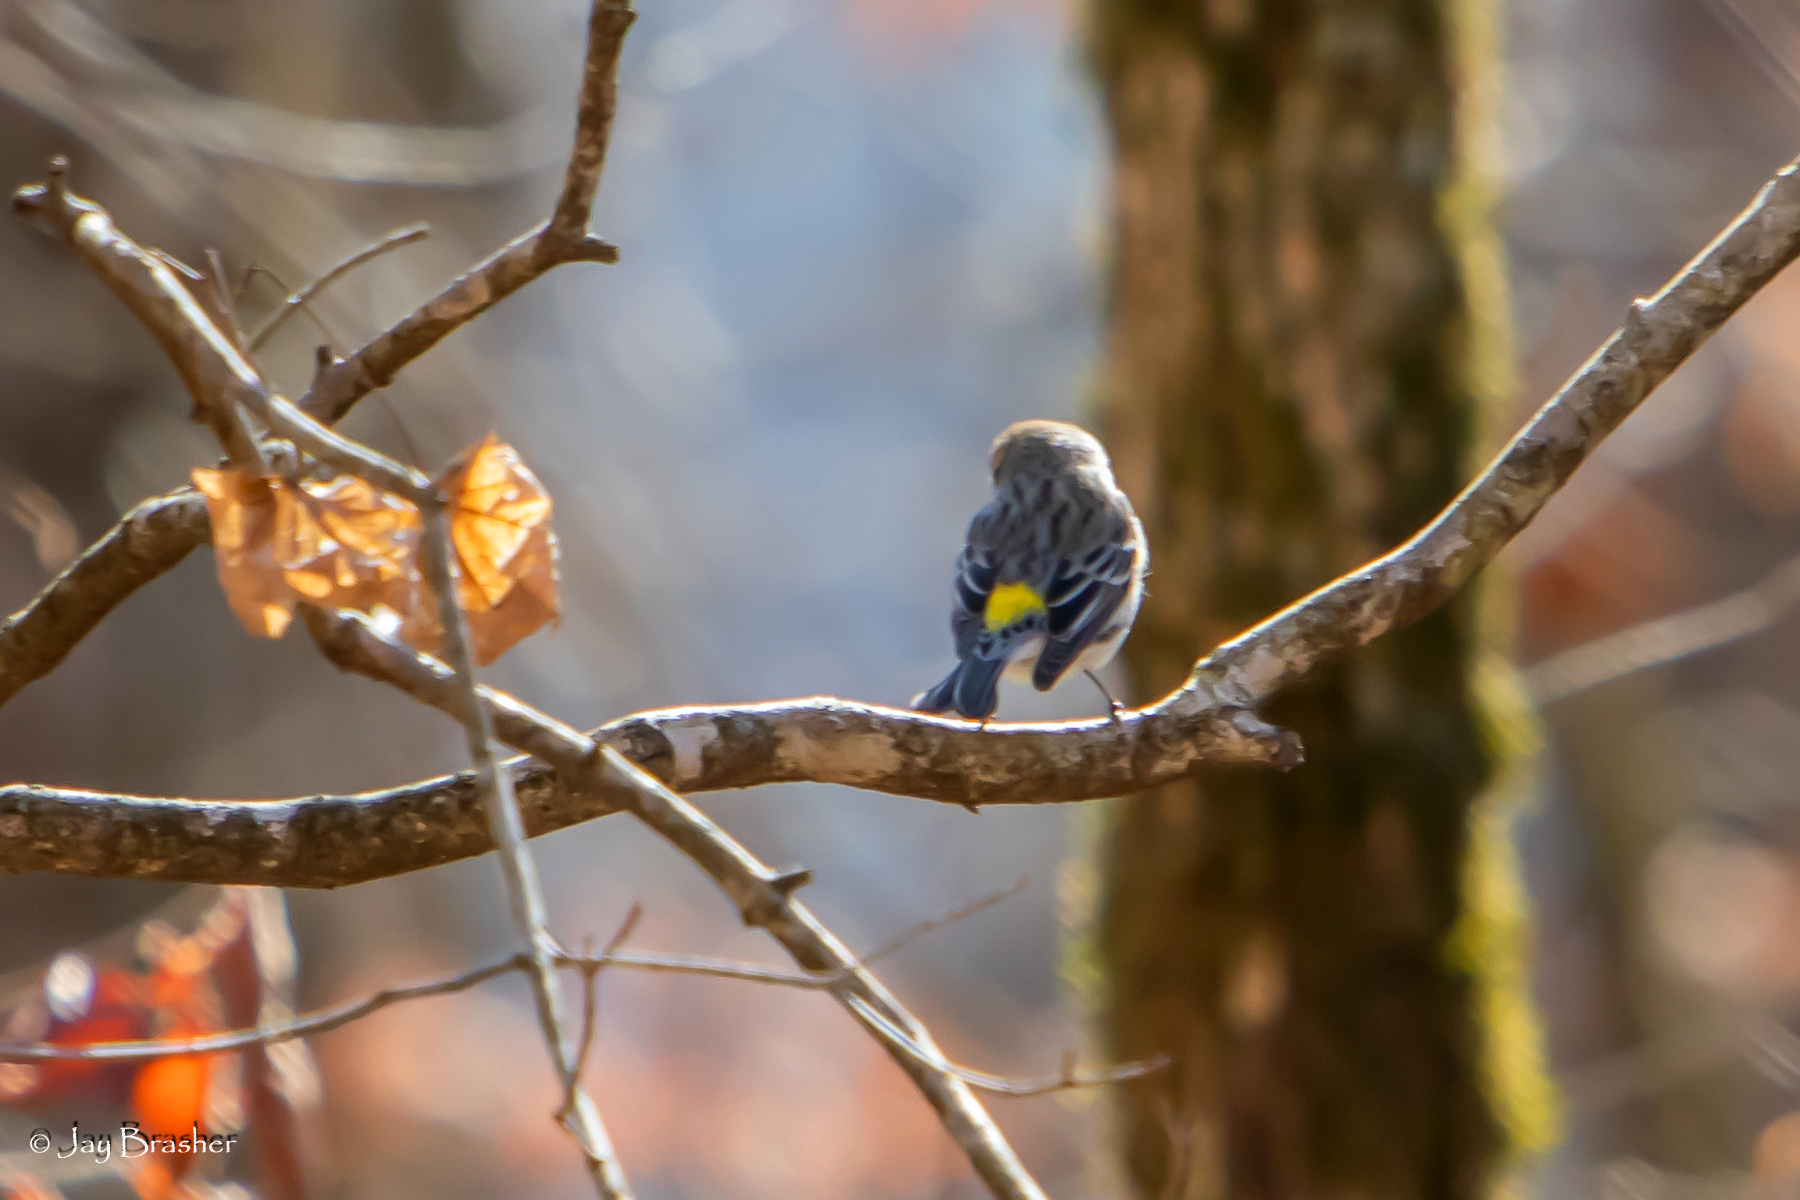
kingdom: Animalia
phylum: Chordata
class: Aves
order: Passeriformes
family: Parulidae
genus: Setophaga
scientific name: Setophaga coronata
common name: Myrtle warbler
